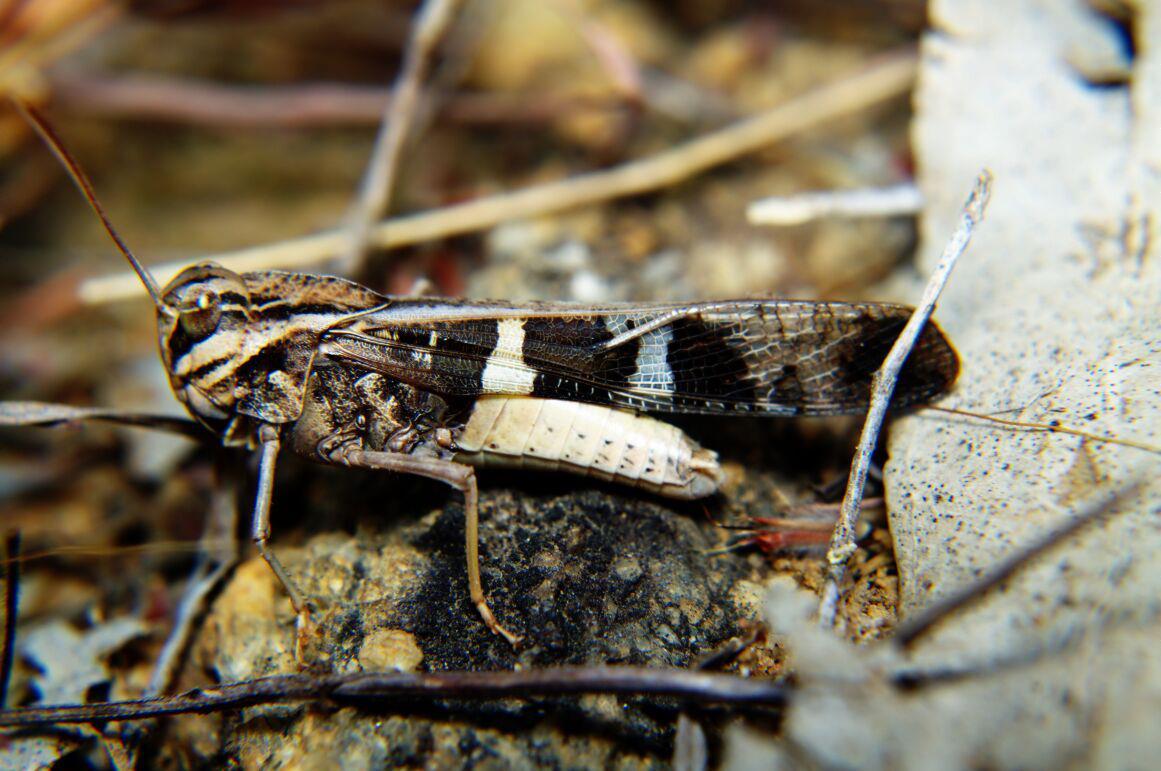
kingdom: Animalia
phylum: Arthropoda
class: Insecta
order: Orthoptera
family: Acrididae
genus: Gastrimargus
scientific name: Gastrimargus africanus
